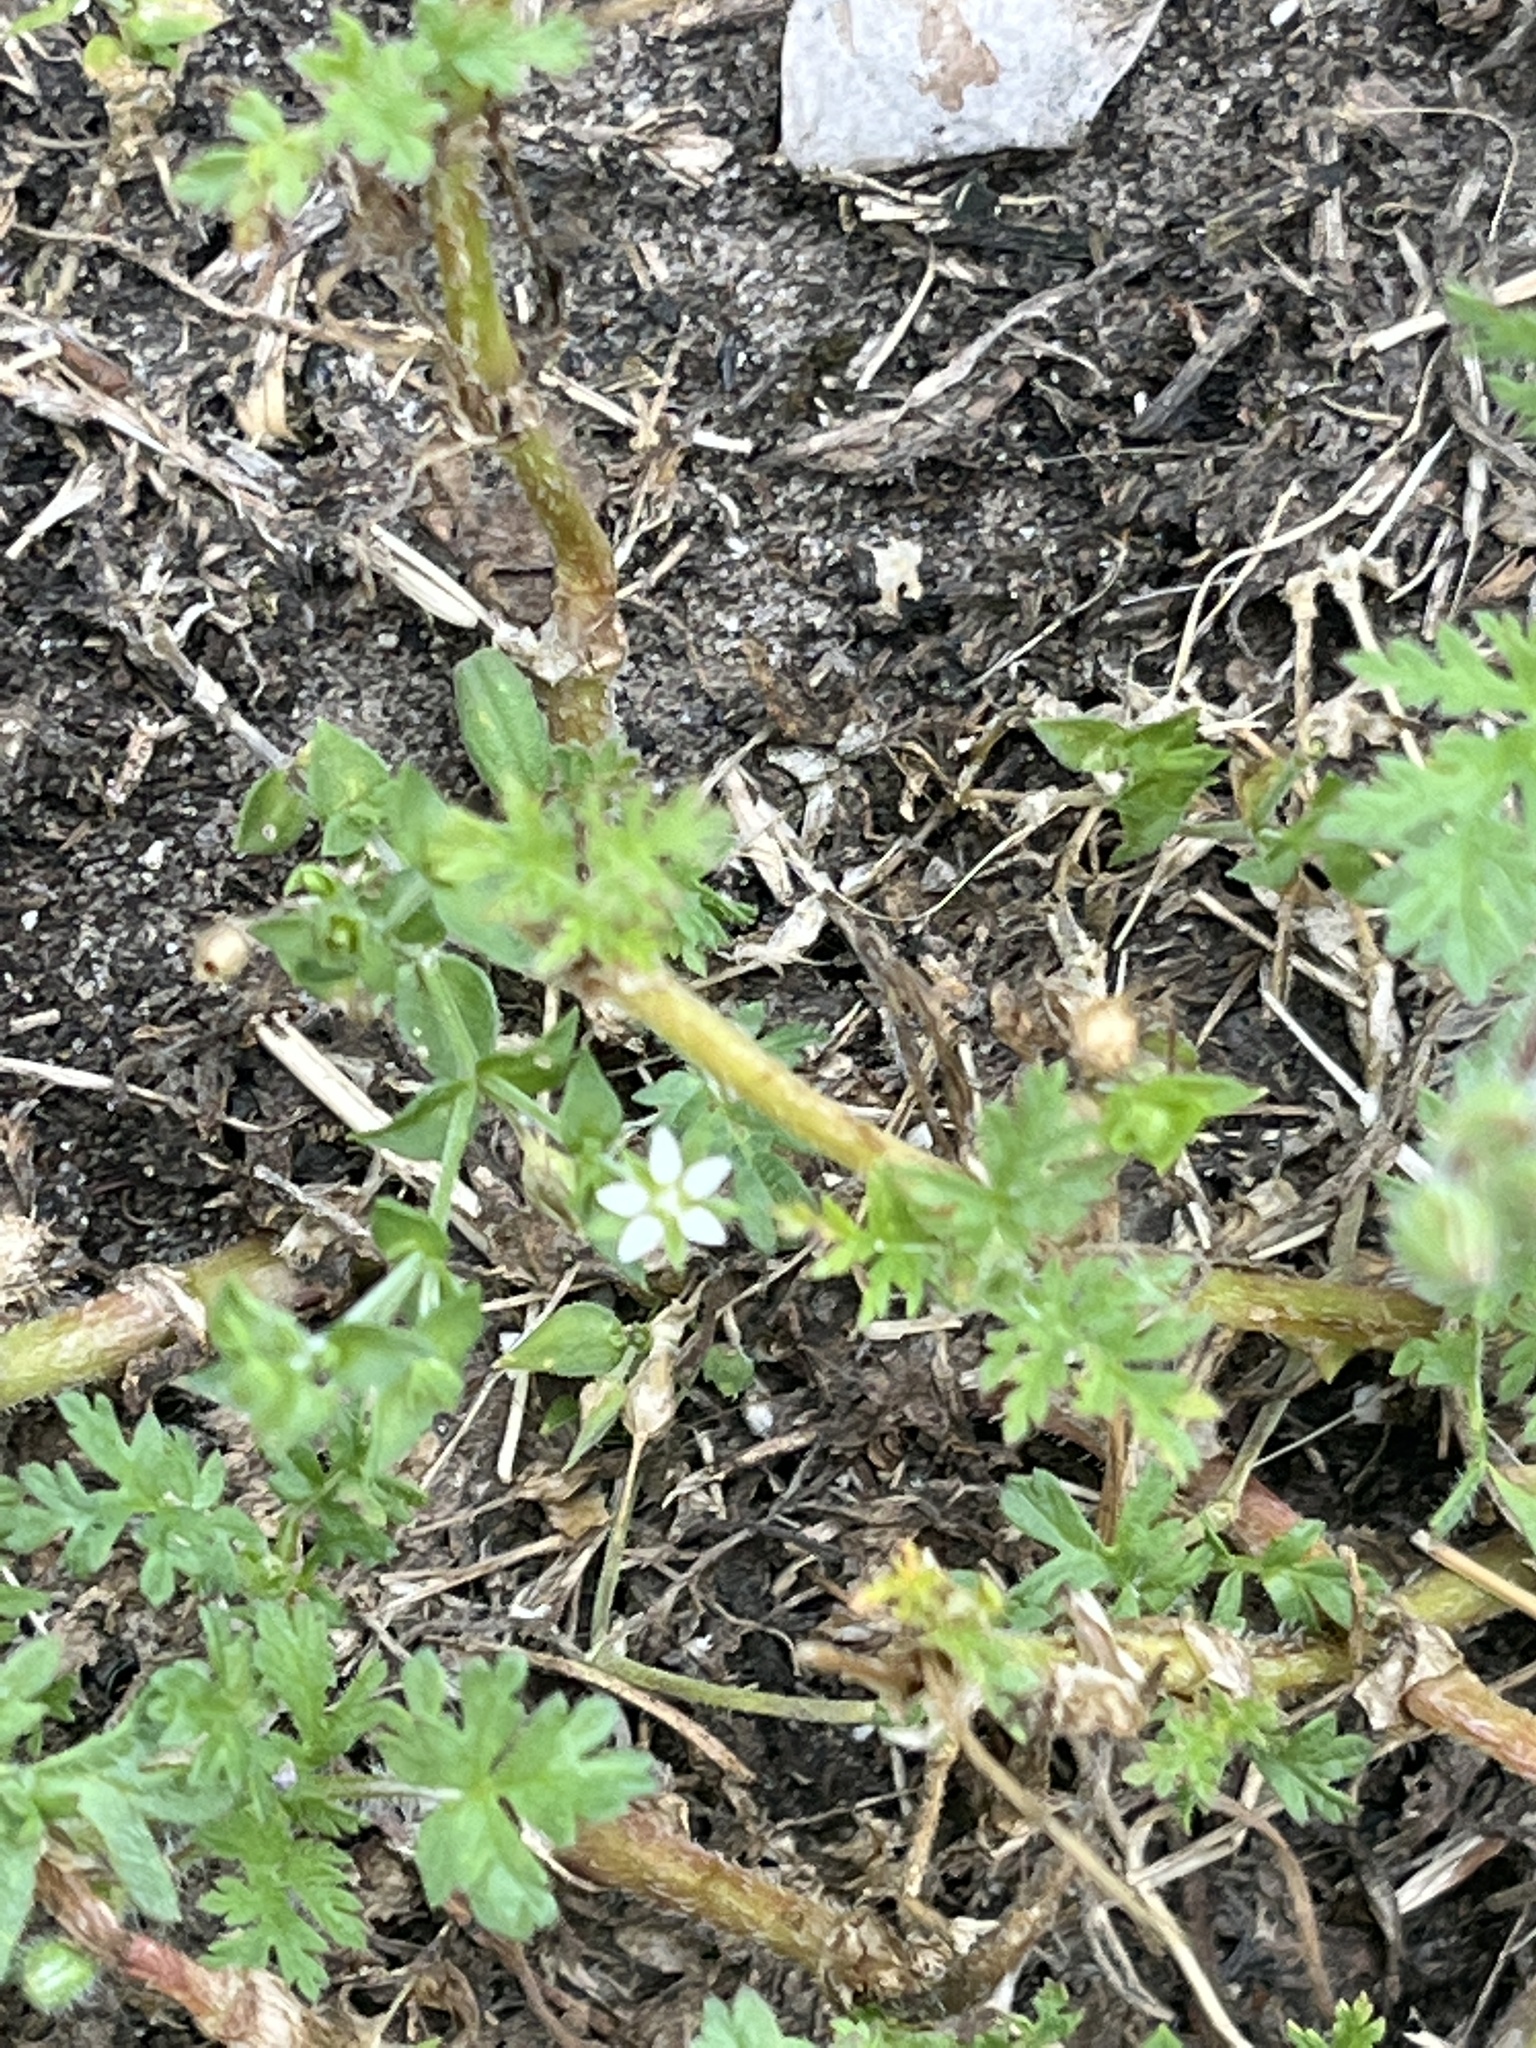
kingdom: Plantae
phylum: Tracheophyta
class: Magnoliopsida
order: Caryophyllales
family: Caryophyllaceae
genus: Arenaria
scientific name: Arenaria serpyllifolia
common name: Thyme-leaved sandwort
